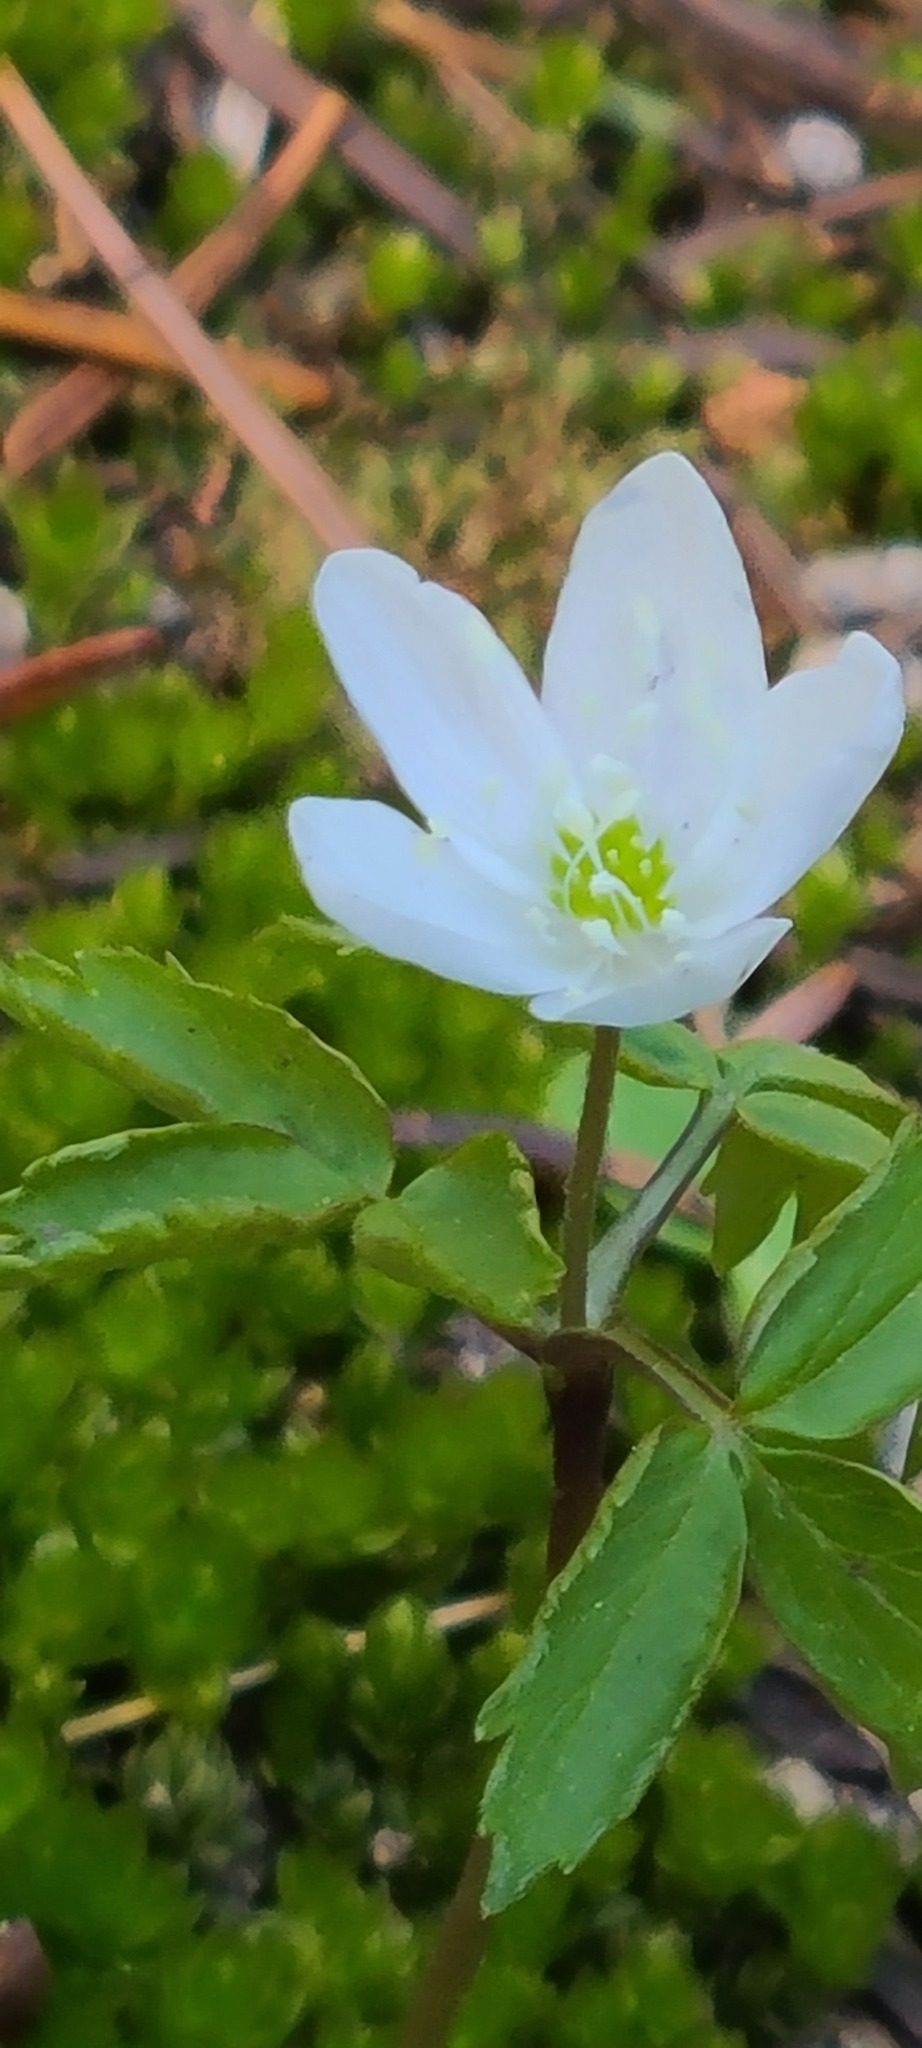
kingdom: Plantae
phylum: Tracheophyta
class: Magnoliopsida
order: Ranunculales
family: Ranunculaceae
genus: Anemone
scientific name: Anemone
